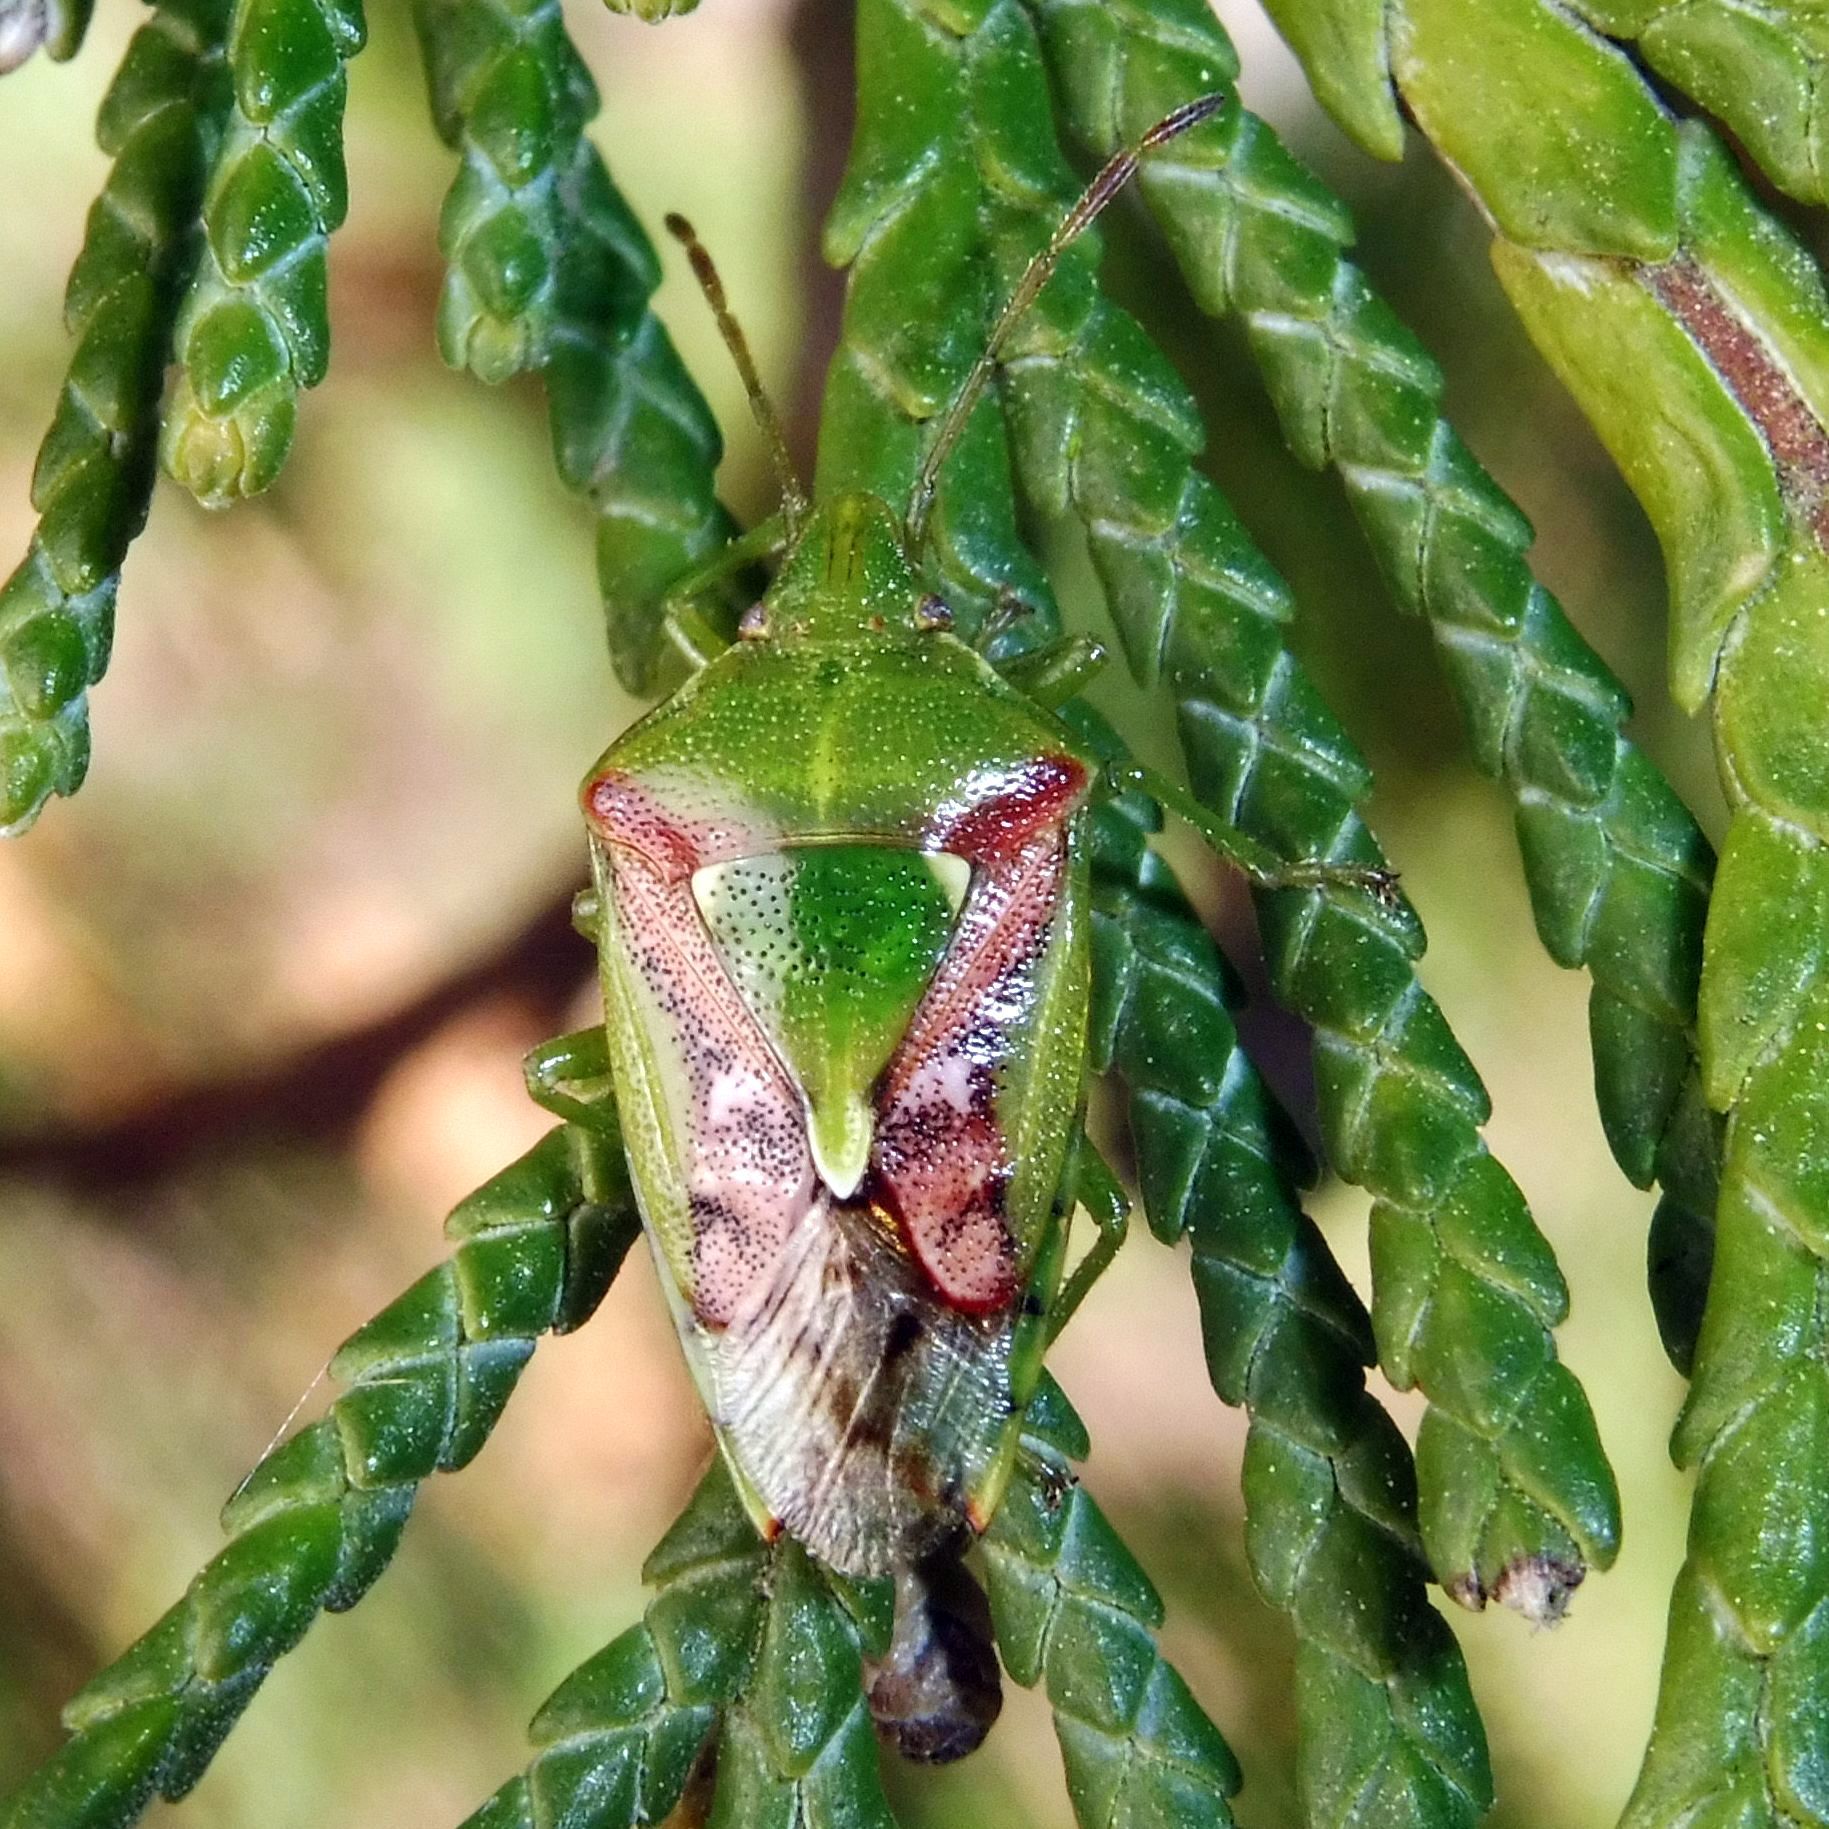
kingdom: Animalia
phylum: Arthropoda
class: Insecta
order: Hemiptera
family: Acanthosomatidae
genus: Cyphostethus
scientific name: Cyphostethus tristriatus
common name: Juniper shieldbug
